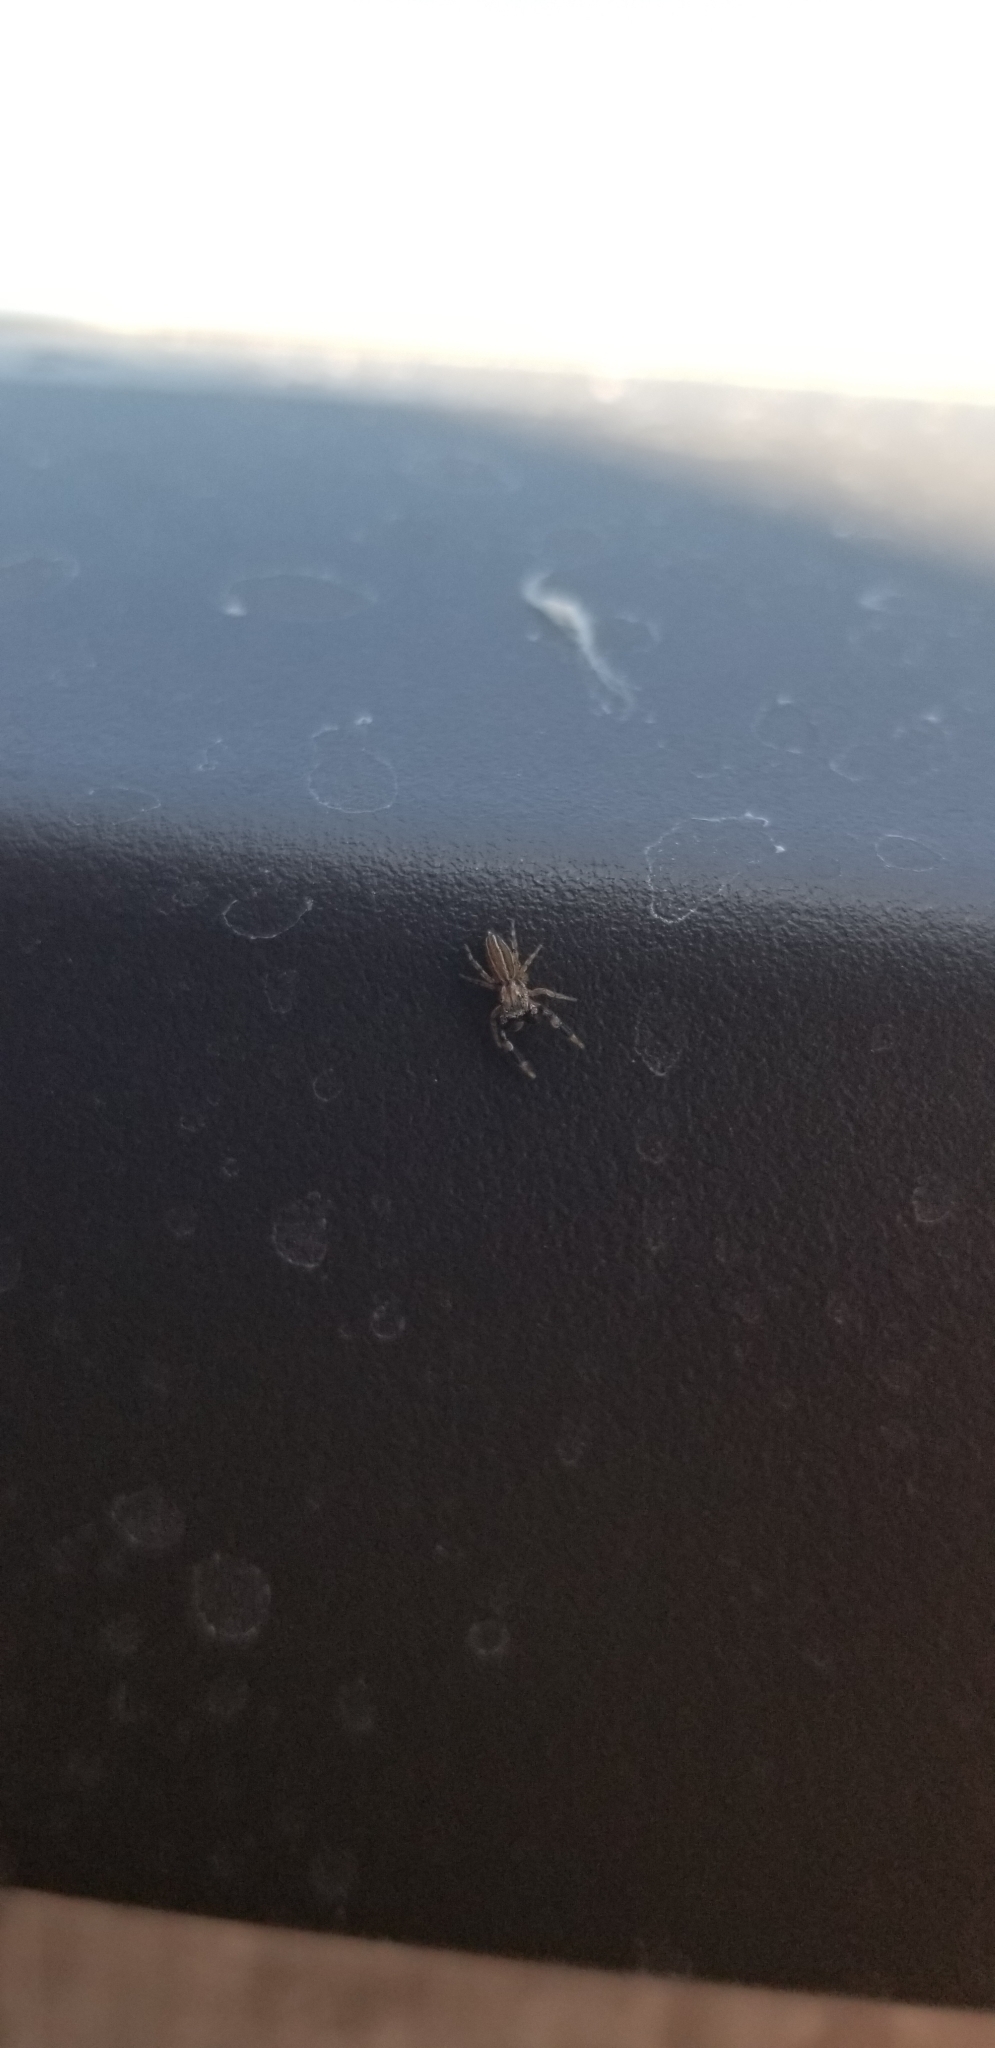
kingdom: Animalia
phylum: Arthropoda
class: Arachnida
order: Araneae
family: Salticidae
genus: Marpissa
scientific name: Marpissa lineata
